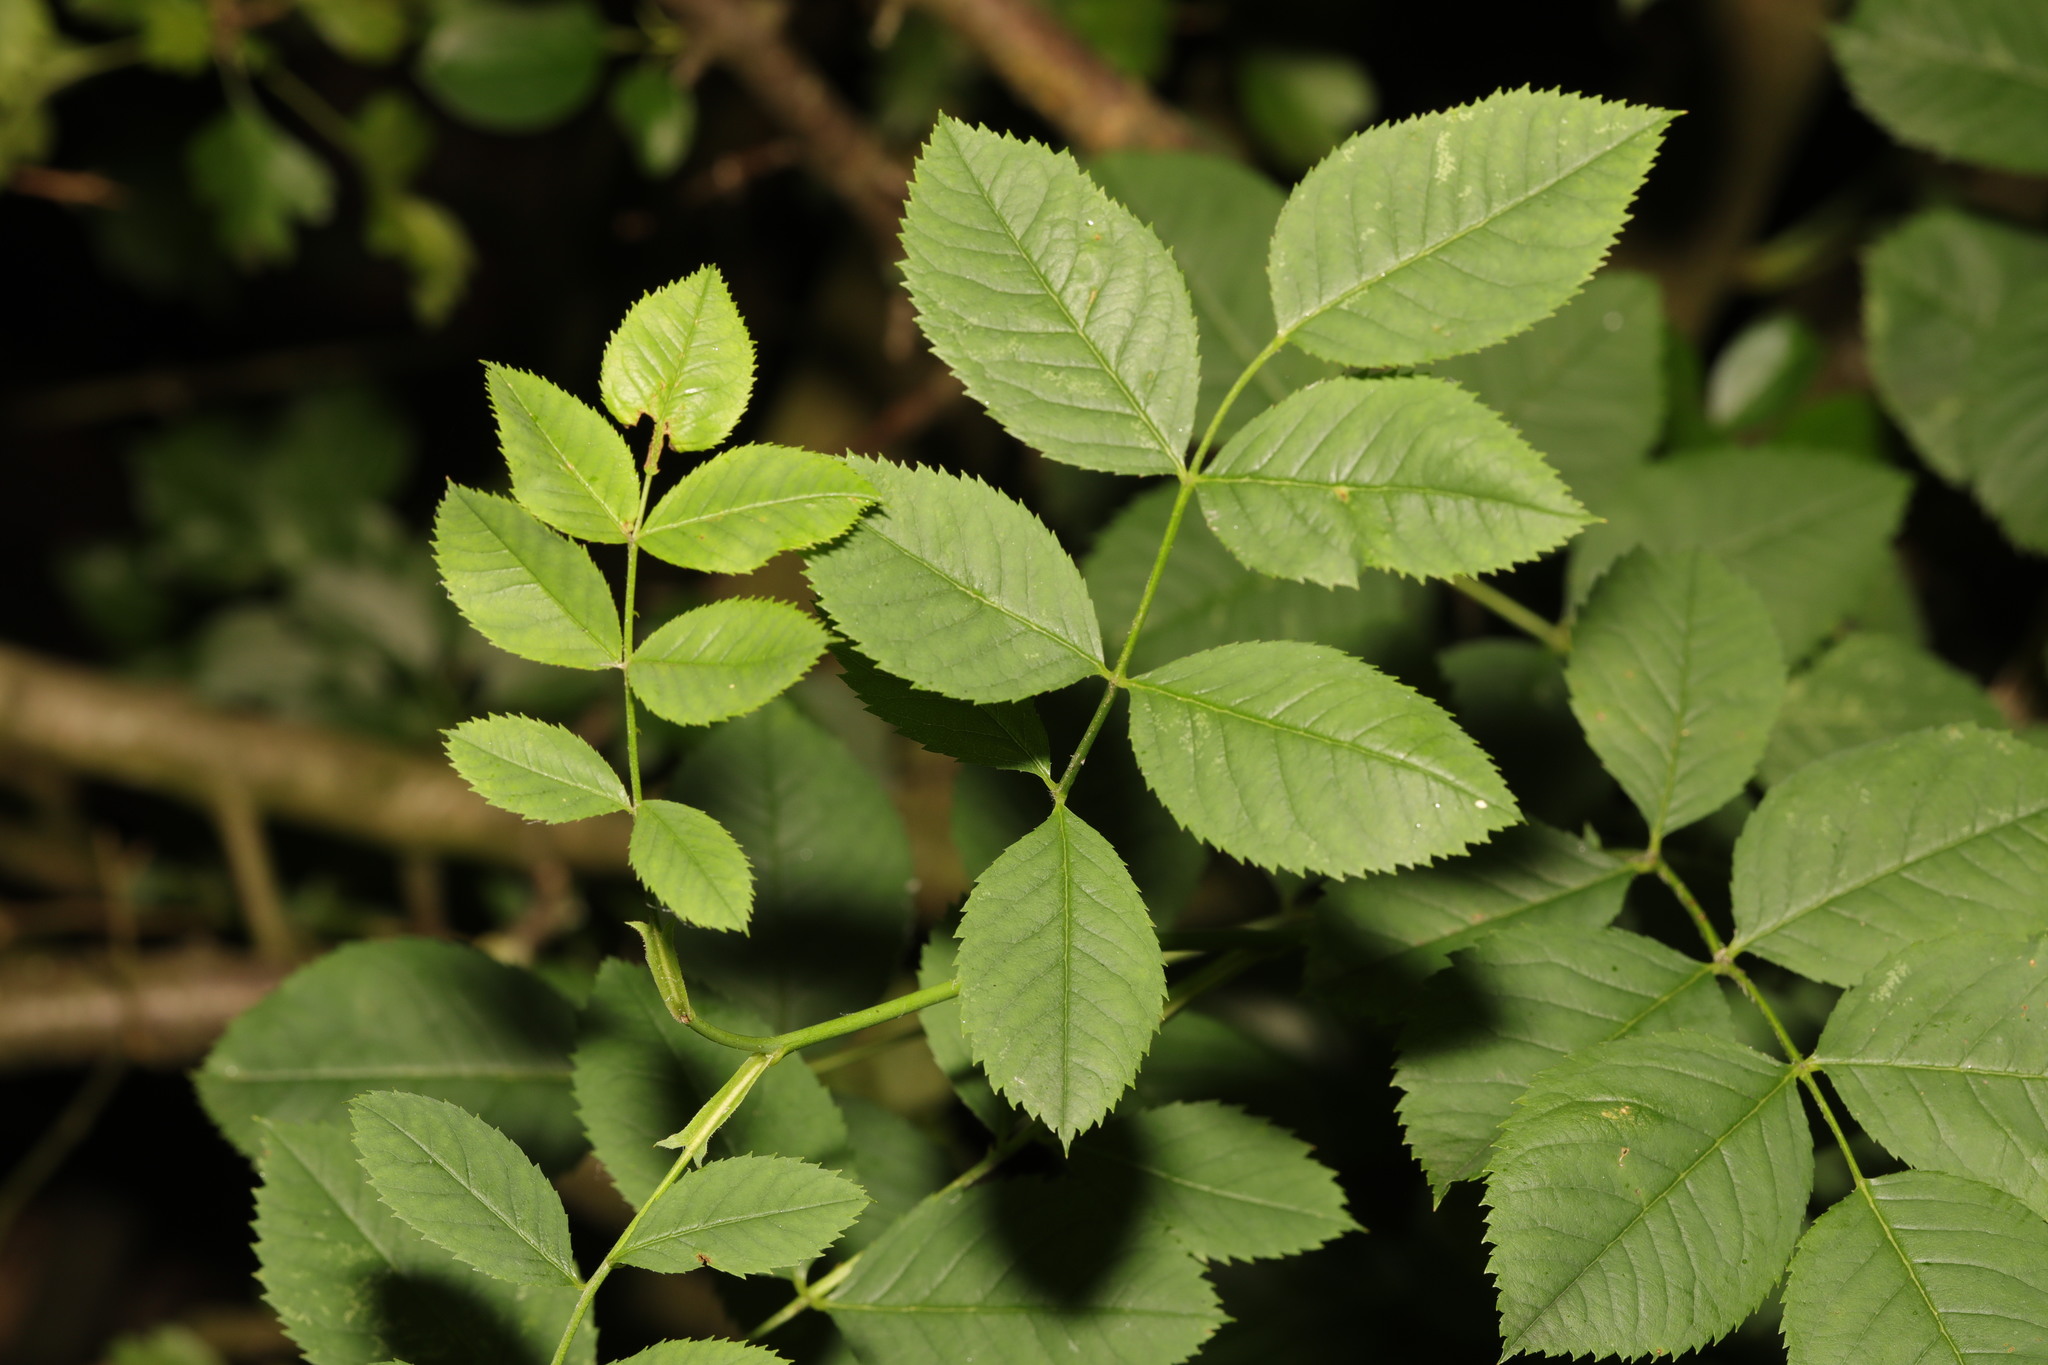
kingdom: Plantae
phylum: Tracheophyta
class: Magnoliopsida
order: Rosales
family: Rosaceae
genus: Rosa
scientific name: Rosa canina
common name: Dog rose
